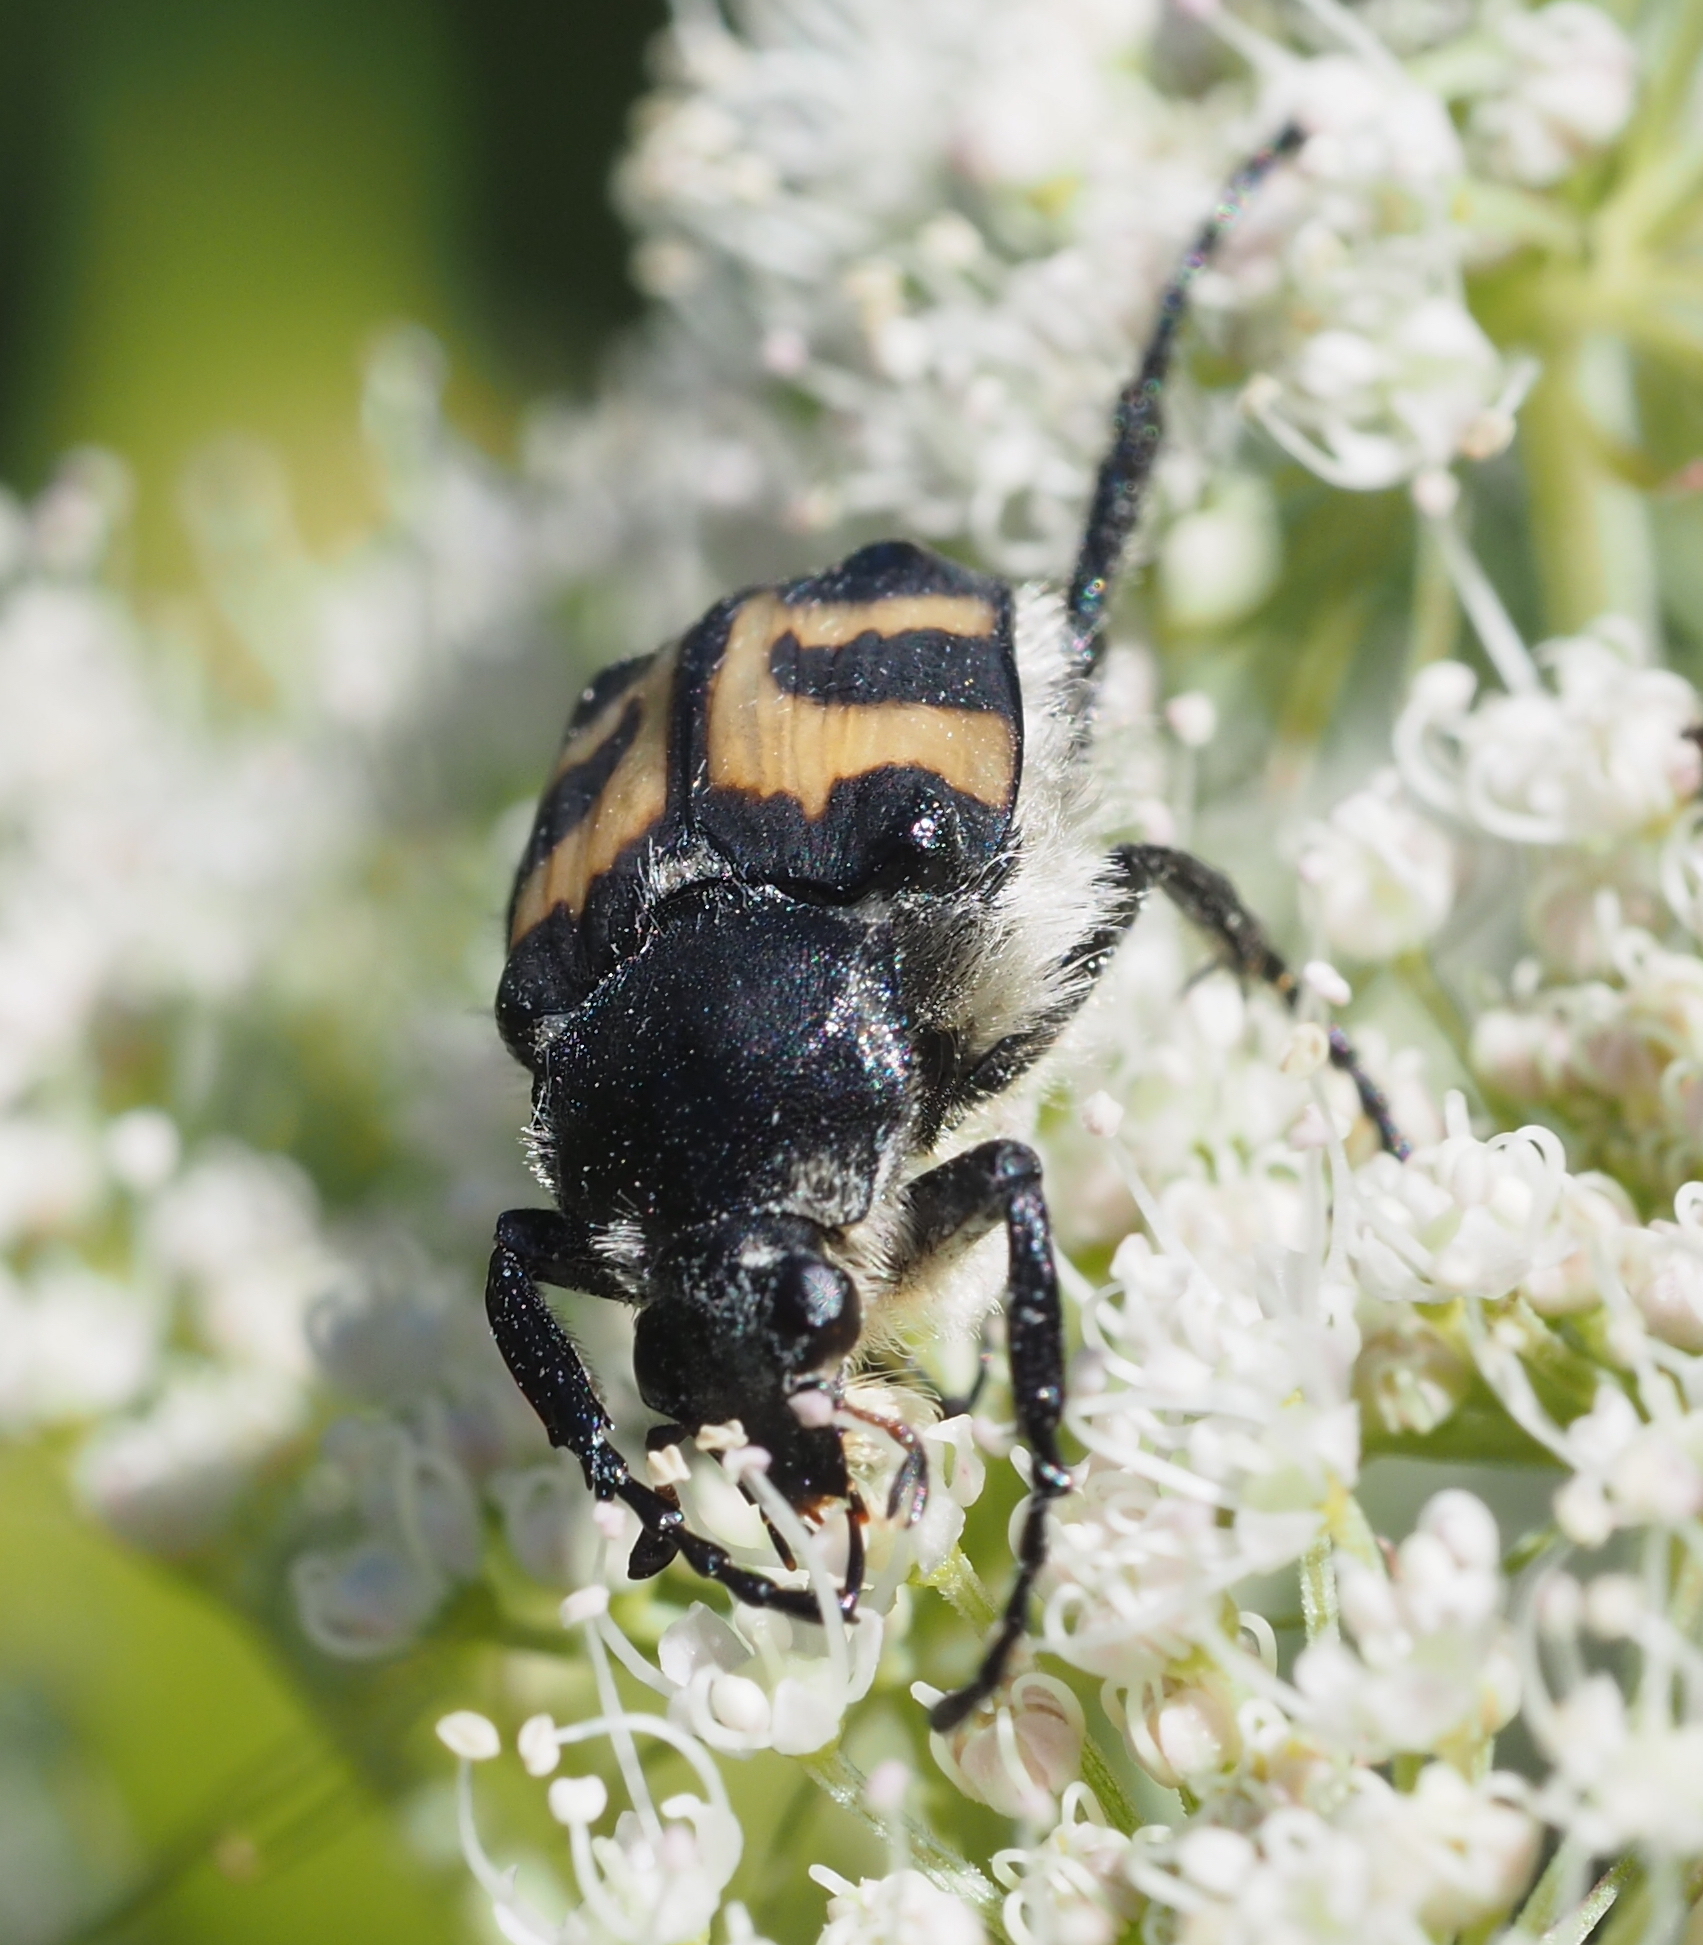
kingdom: Animalia
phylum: Arthropoda
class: Insecta
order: Coleoptera
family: Scarabaeidae
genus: Trichius
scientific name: Trichius fasciatus
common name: Bee beetle
